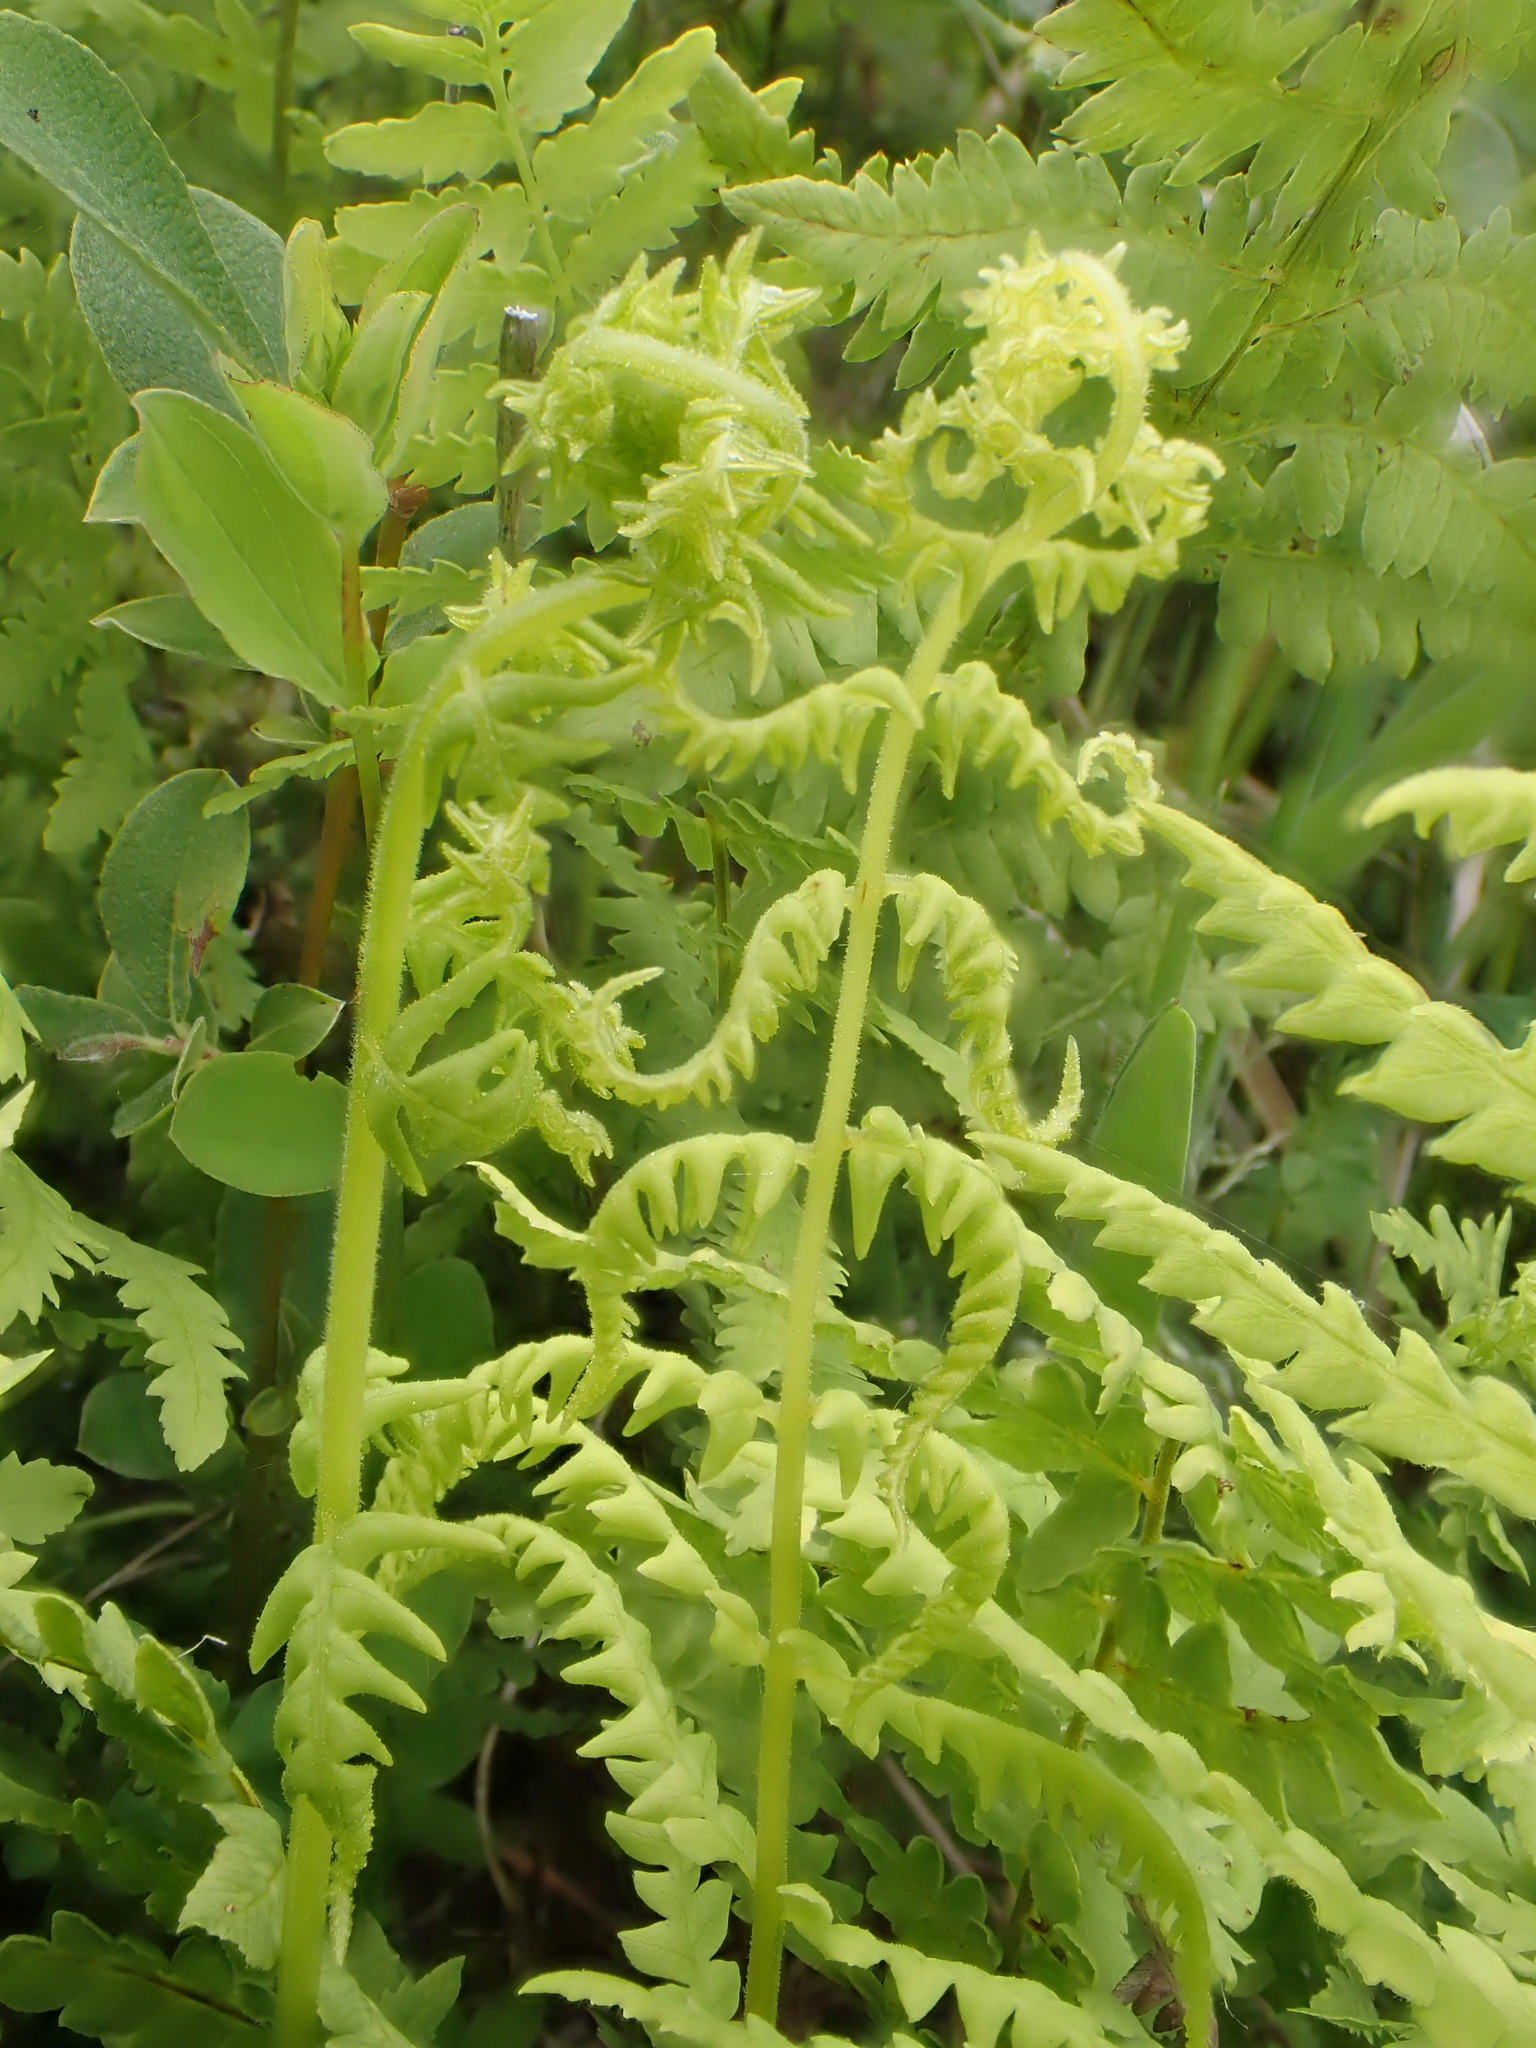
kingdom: Plantae
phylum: Tracheophyta
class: Polypodiopsida
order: Polypodiales
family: Thelypteridaceae
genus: Thelypteris
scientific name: Thelypteris palustris
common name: Marsh fern
